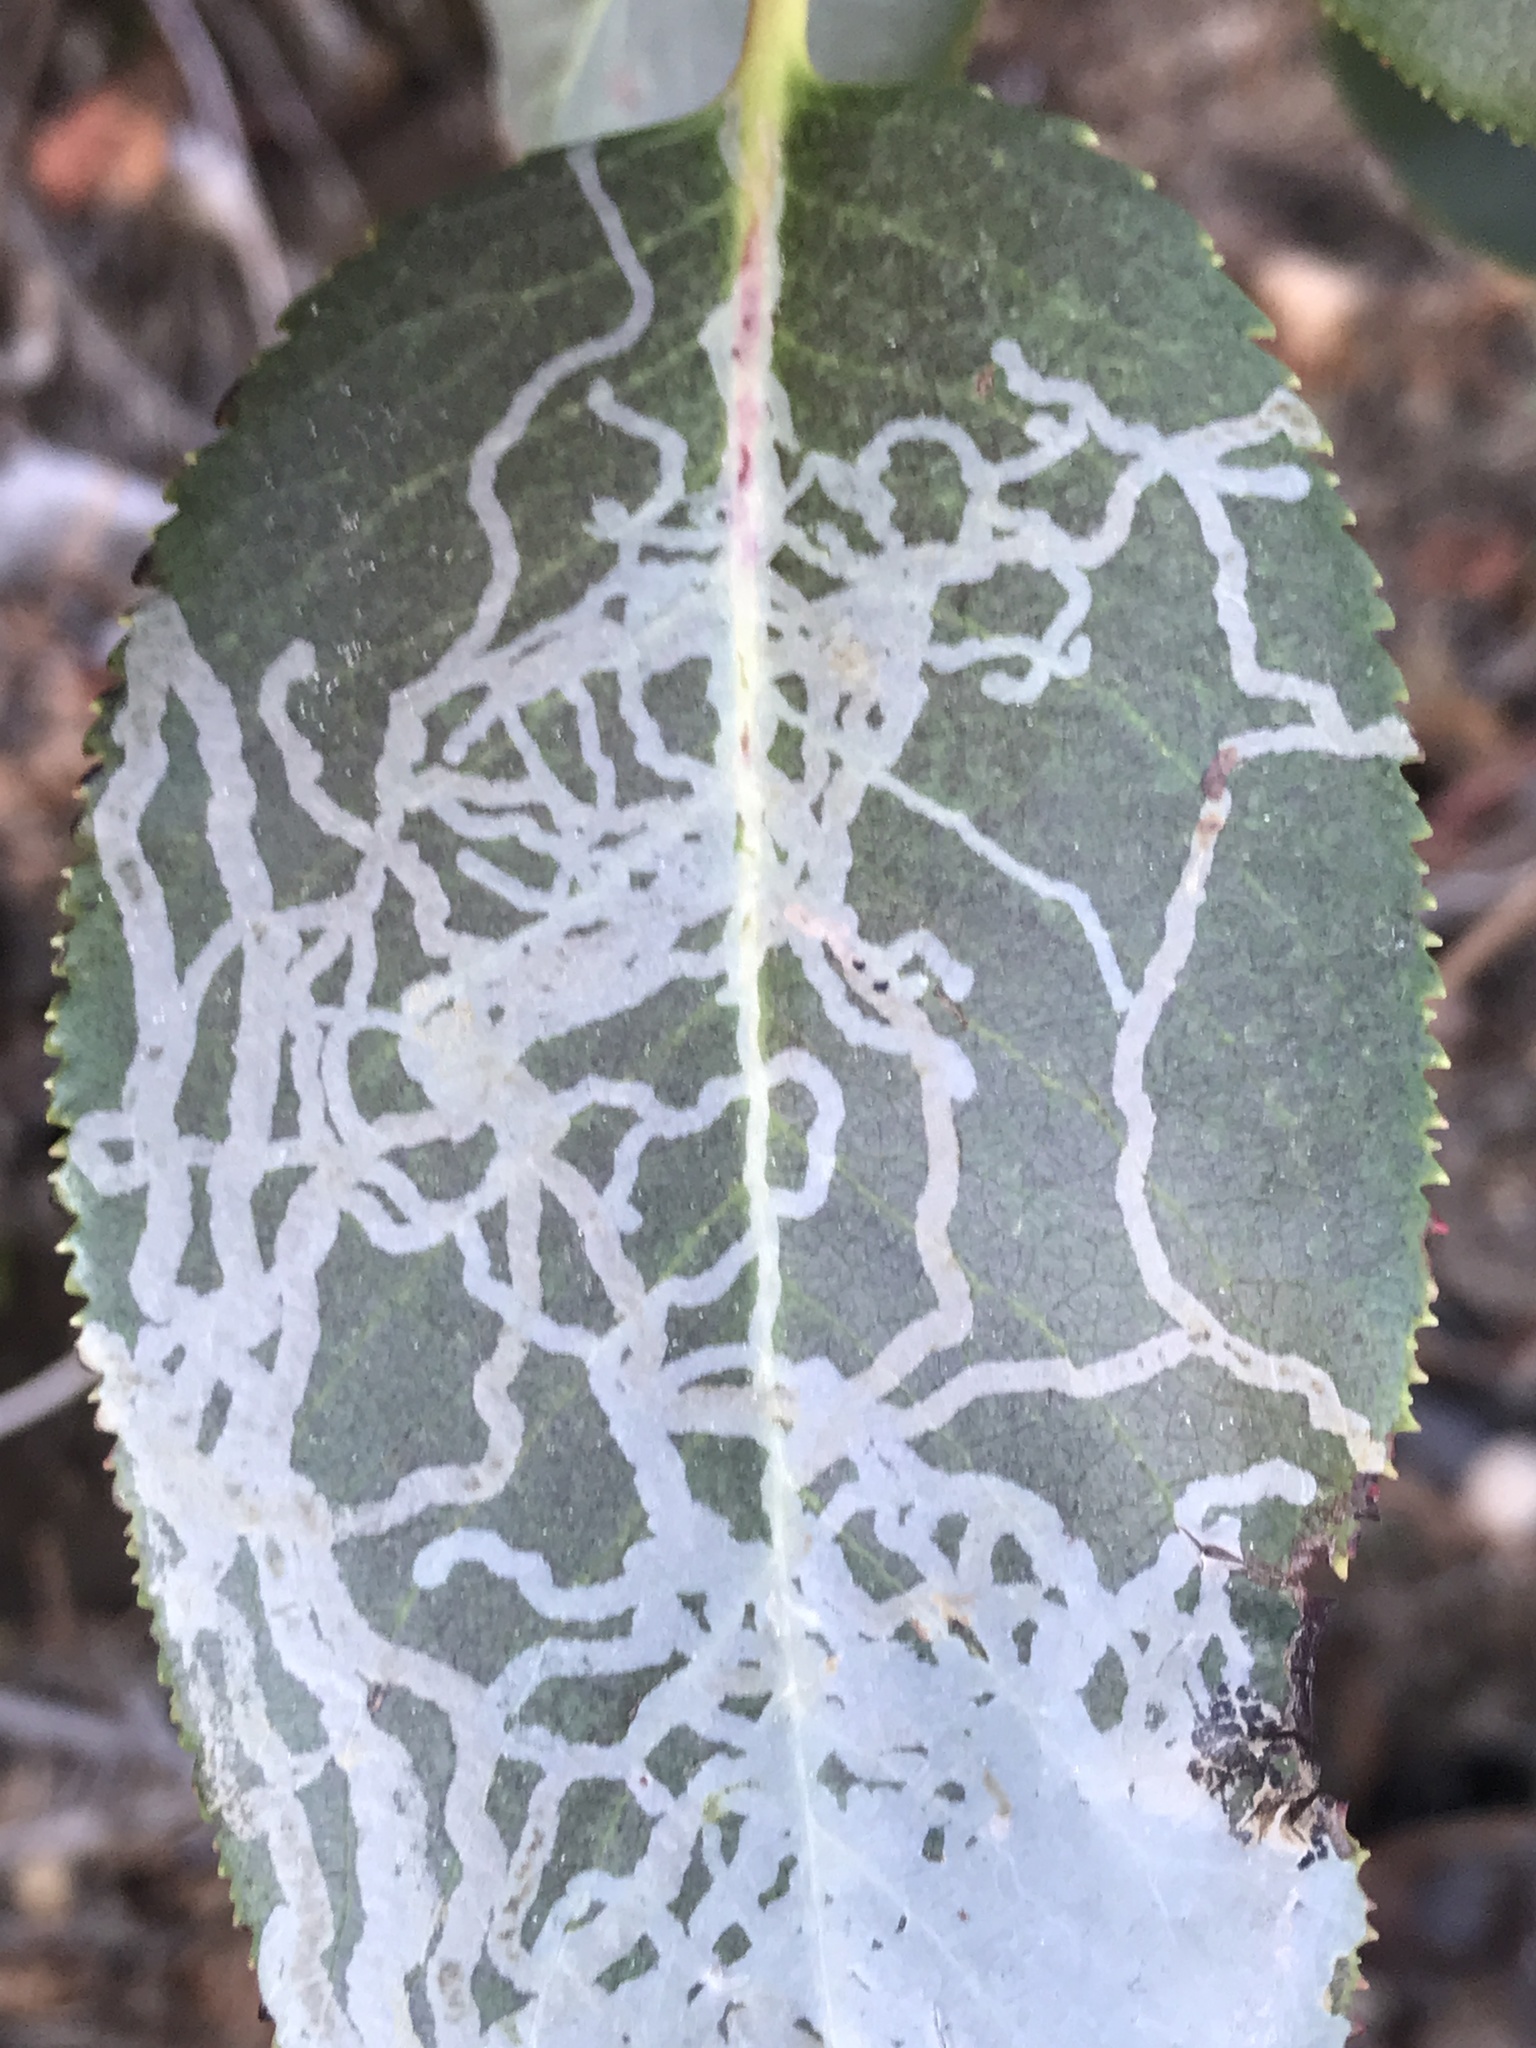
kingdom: Animalia
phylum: Arthropoda
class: Insecta
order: Lepidoptera
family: Gracillariidae
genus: Marmara
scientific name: Marmara arbutiella
